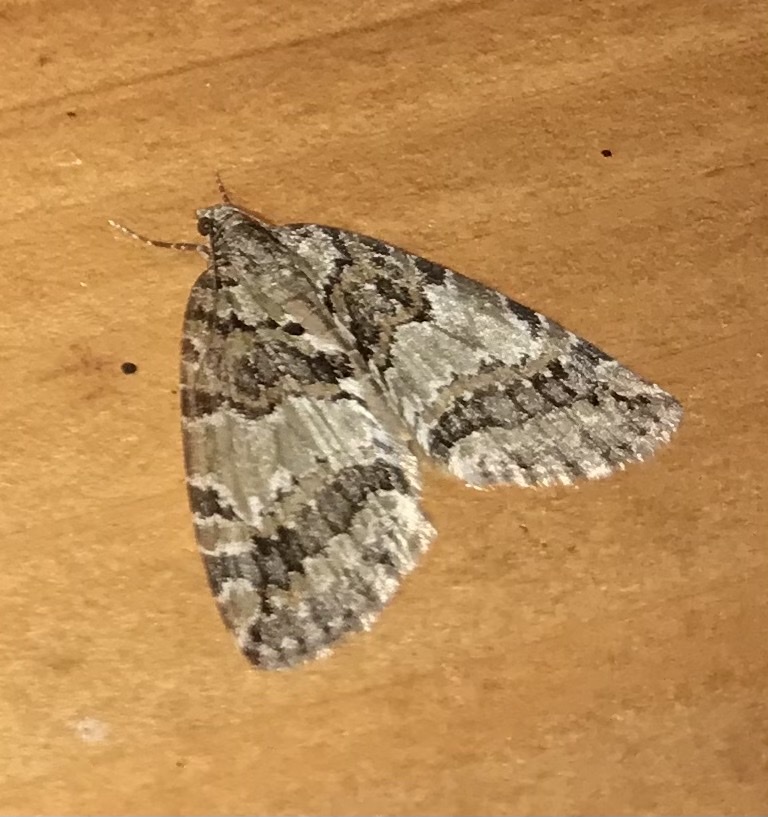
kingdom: Animalia
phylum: Arthropoda
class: Insecta
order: Lepidoptera
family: Geometridae
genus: Hydriomena
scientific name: Hydriomena nubilofasciata
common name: Oak winter highflier moth
